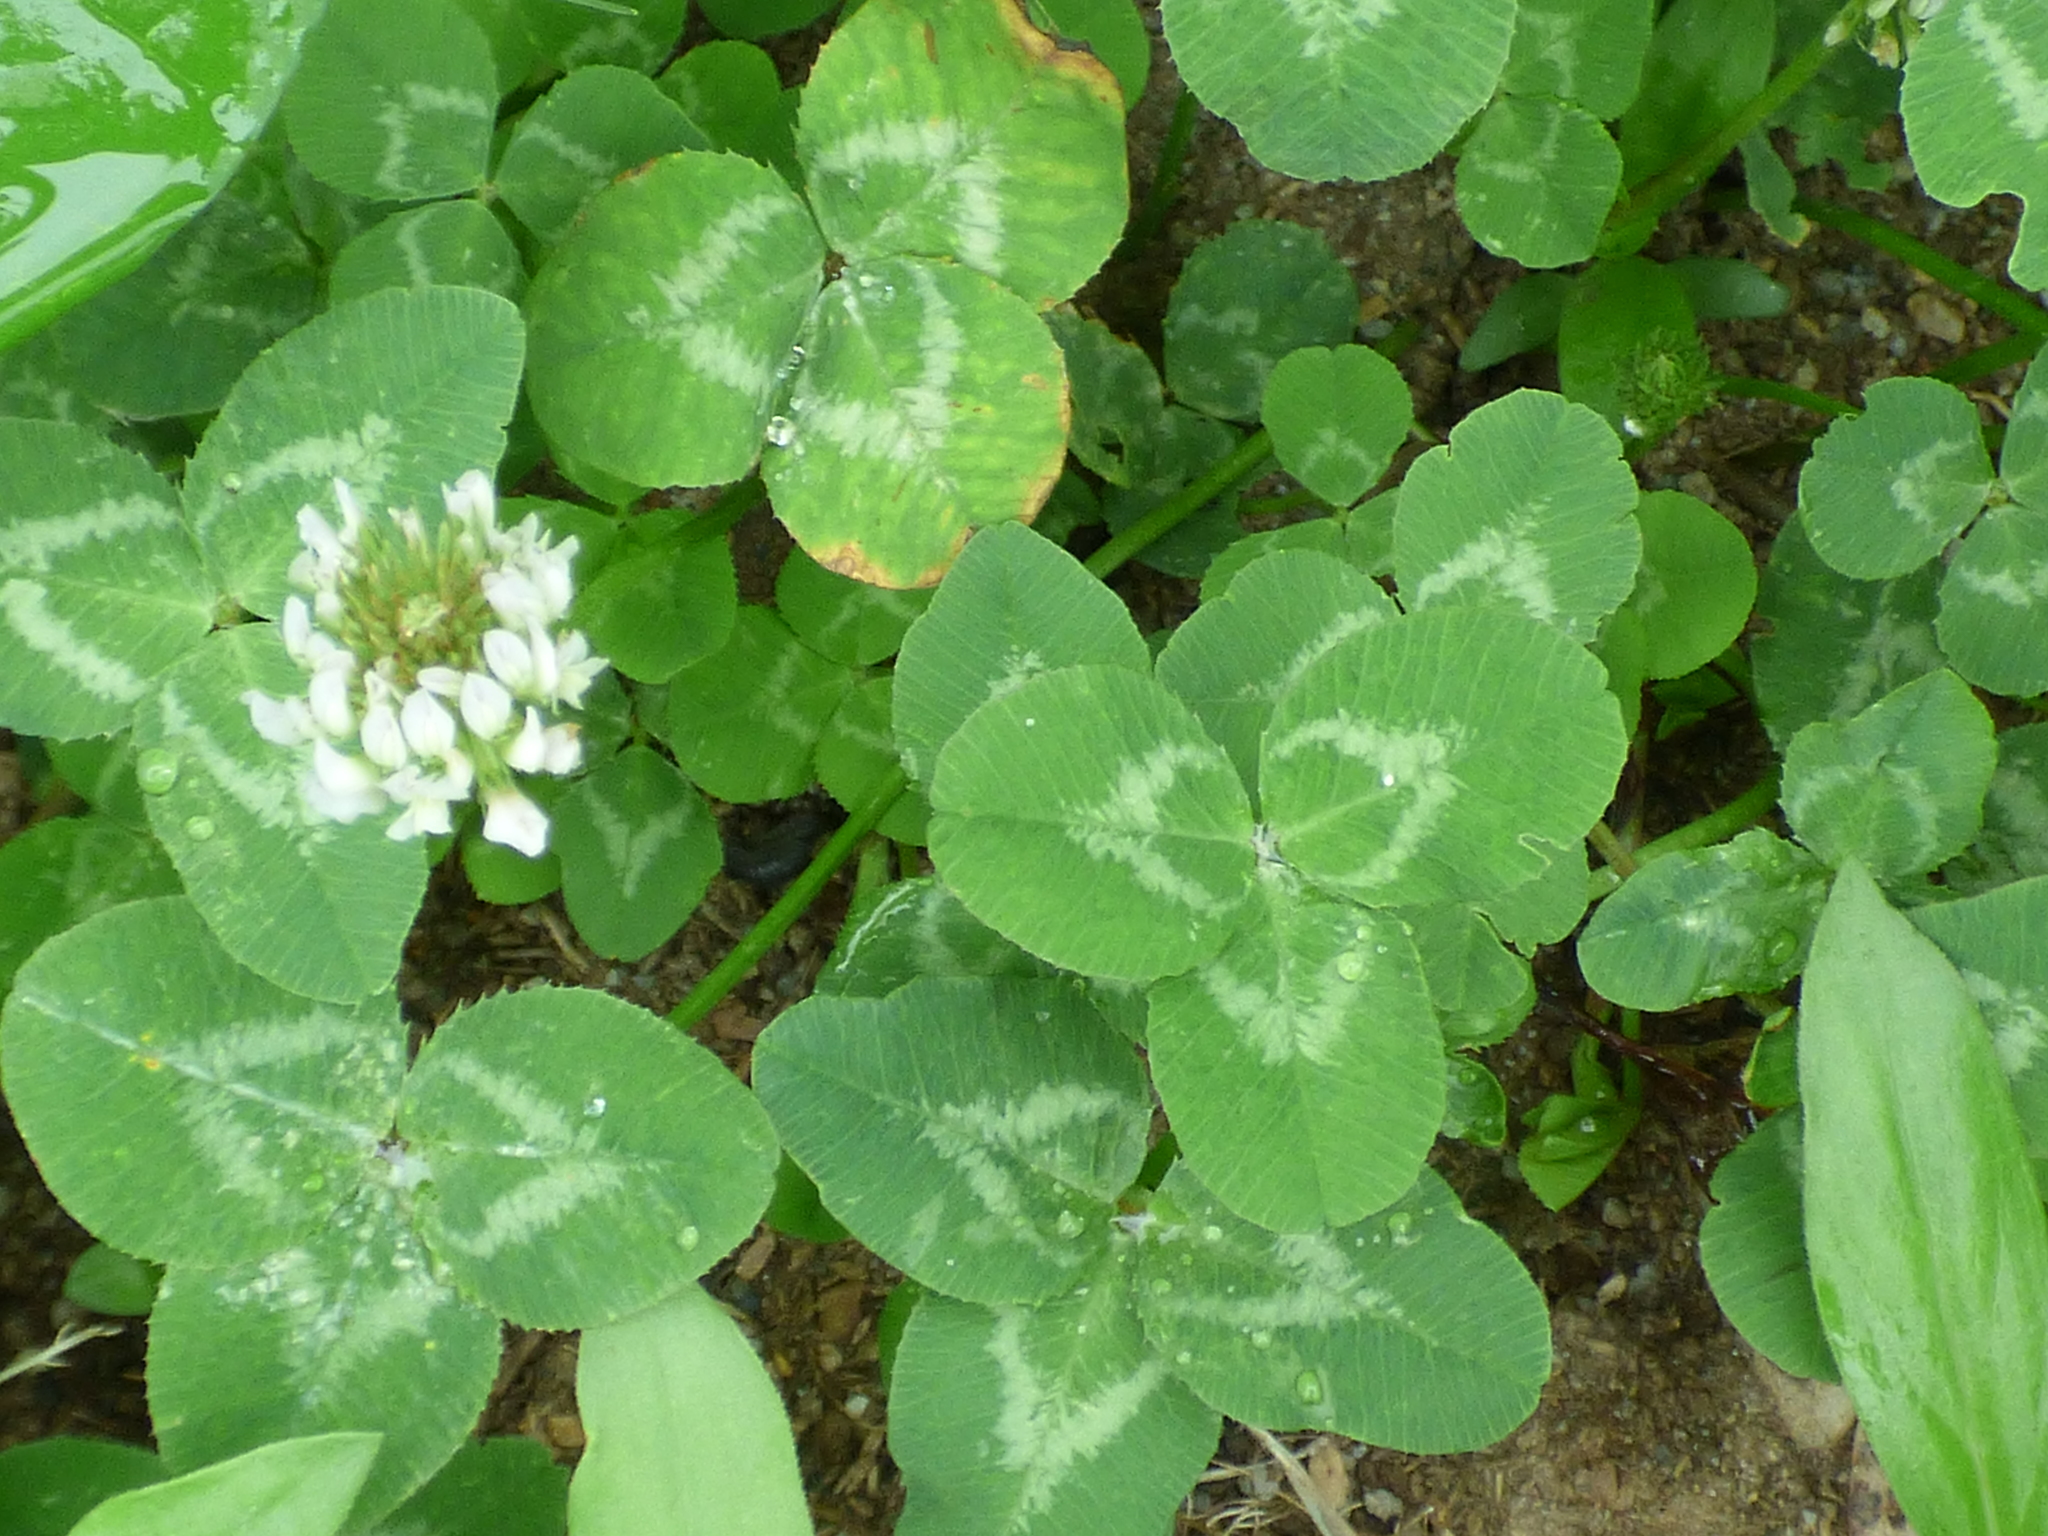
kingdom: Plantae
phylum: Tracheophyta
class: Magnoliopsida
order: Fabales
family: Fabaceae
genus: Trifolium
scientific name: Trifolium repens
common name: White clover
